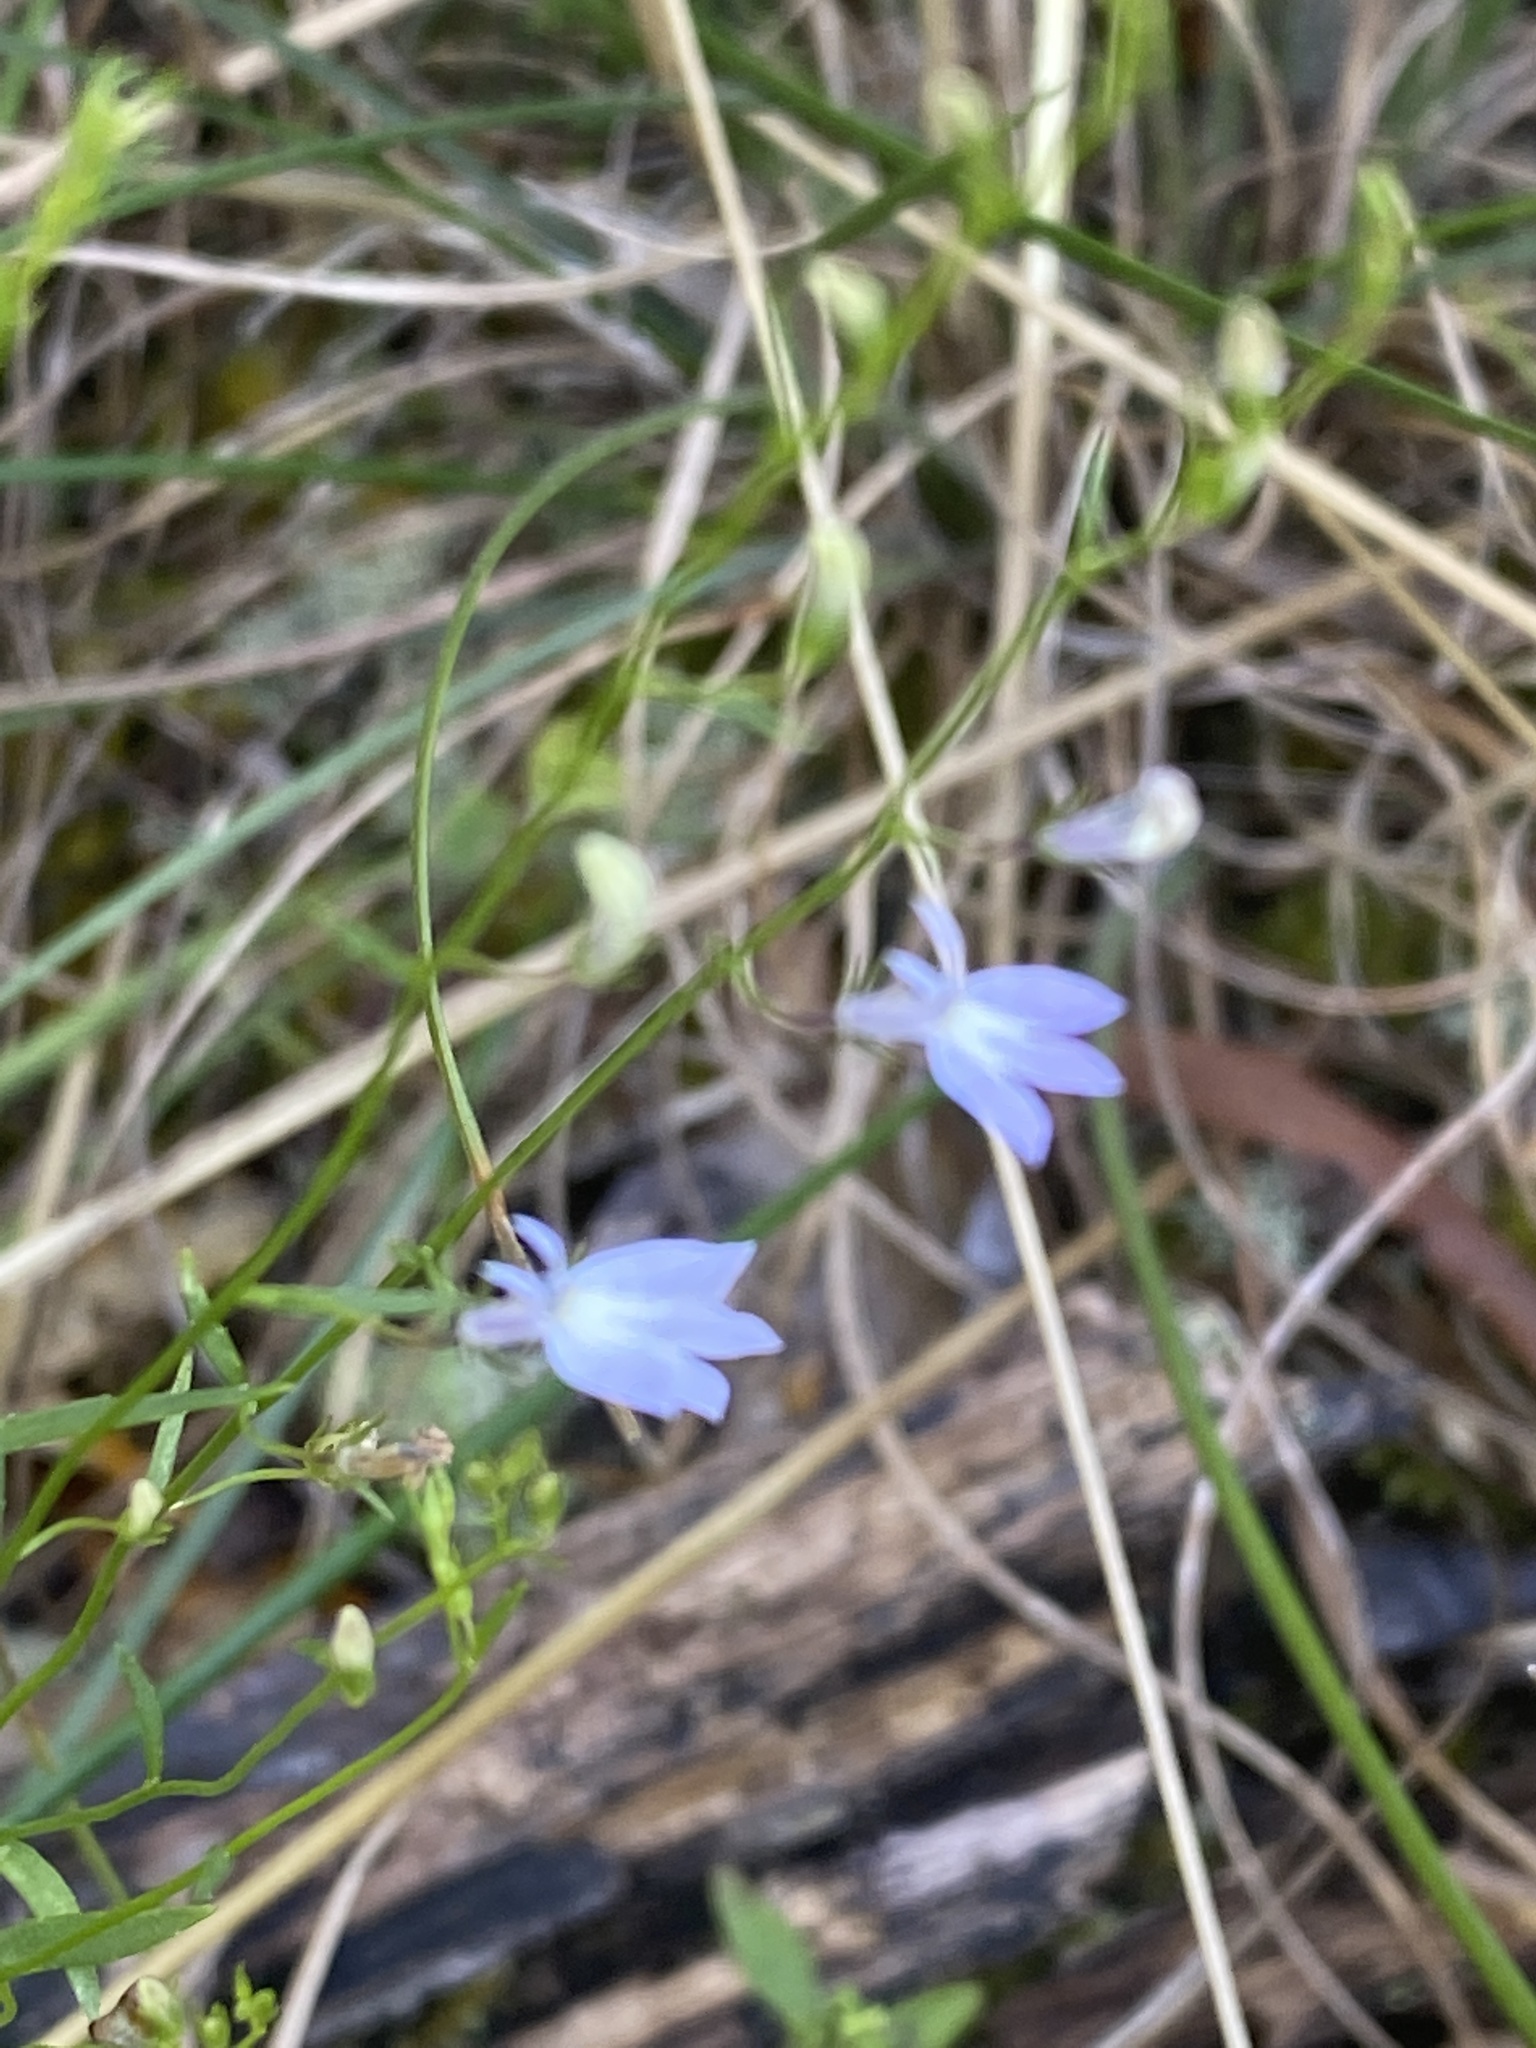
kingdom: Plantae
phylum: Tracheophyta
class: Magnoliopsida
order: Asterales
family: Campanulaceae
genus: Lobelia
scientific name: Lobelia nuttallii
